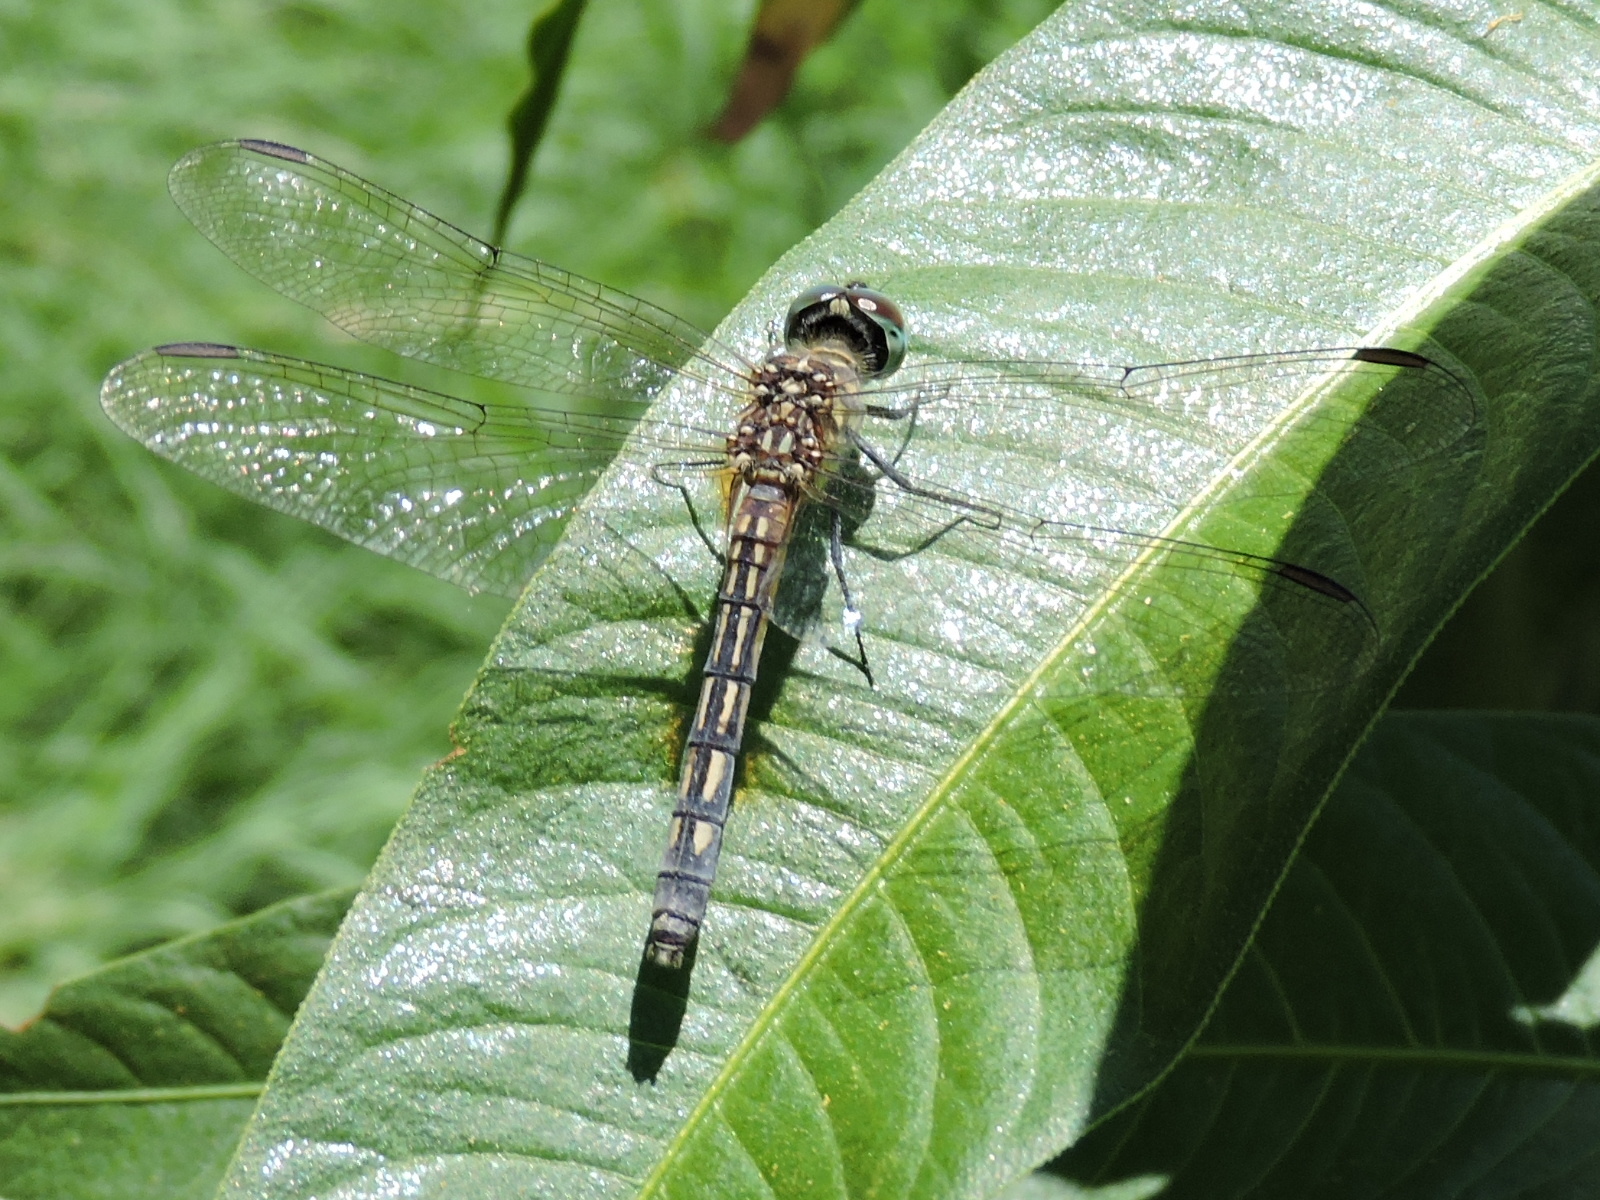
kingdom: Animalia
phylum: Arthropoda
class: Insecta
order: Odonata
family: Libellulidae
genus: Pachydiplax
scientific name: Pachydiplax longipennis
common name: Blue dasher
